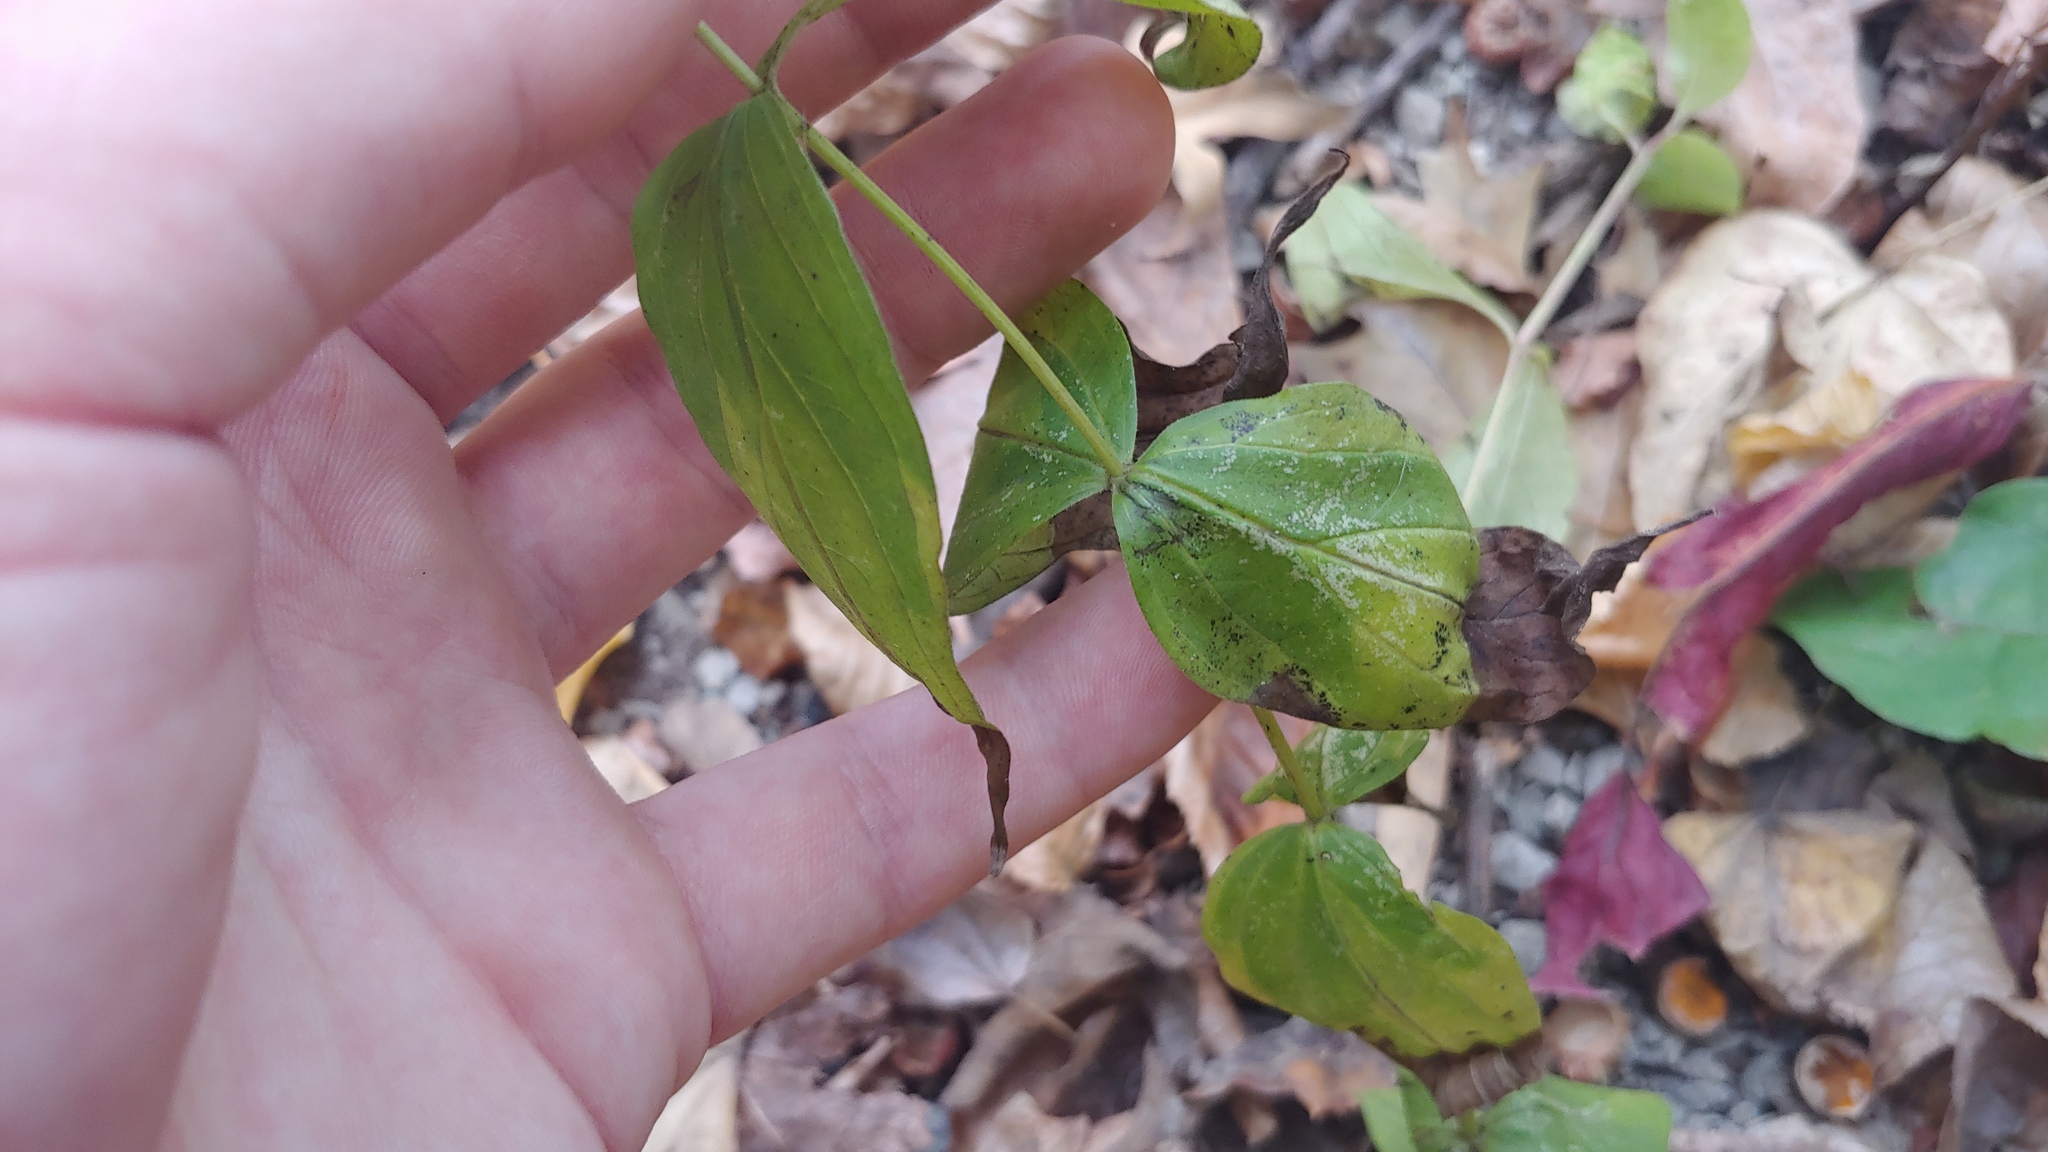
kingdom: Plantae
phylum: Tracheophyta
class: Magnoliopsida
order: Gentianales
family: Loganiaceae
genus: Spigelia
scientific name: Spigelia marilandica
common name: Indian-pink
